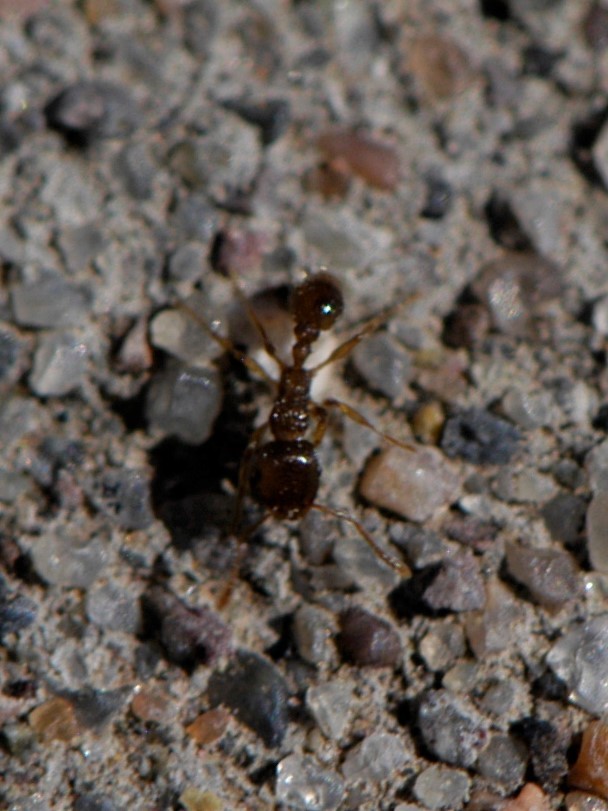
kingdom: Animalia
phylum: Arthropoda
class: Insecta
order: Hymenoptera
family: Formicidae
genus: Tetramorium
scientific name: Tetramorium immigrans
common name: Pavement ant
